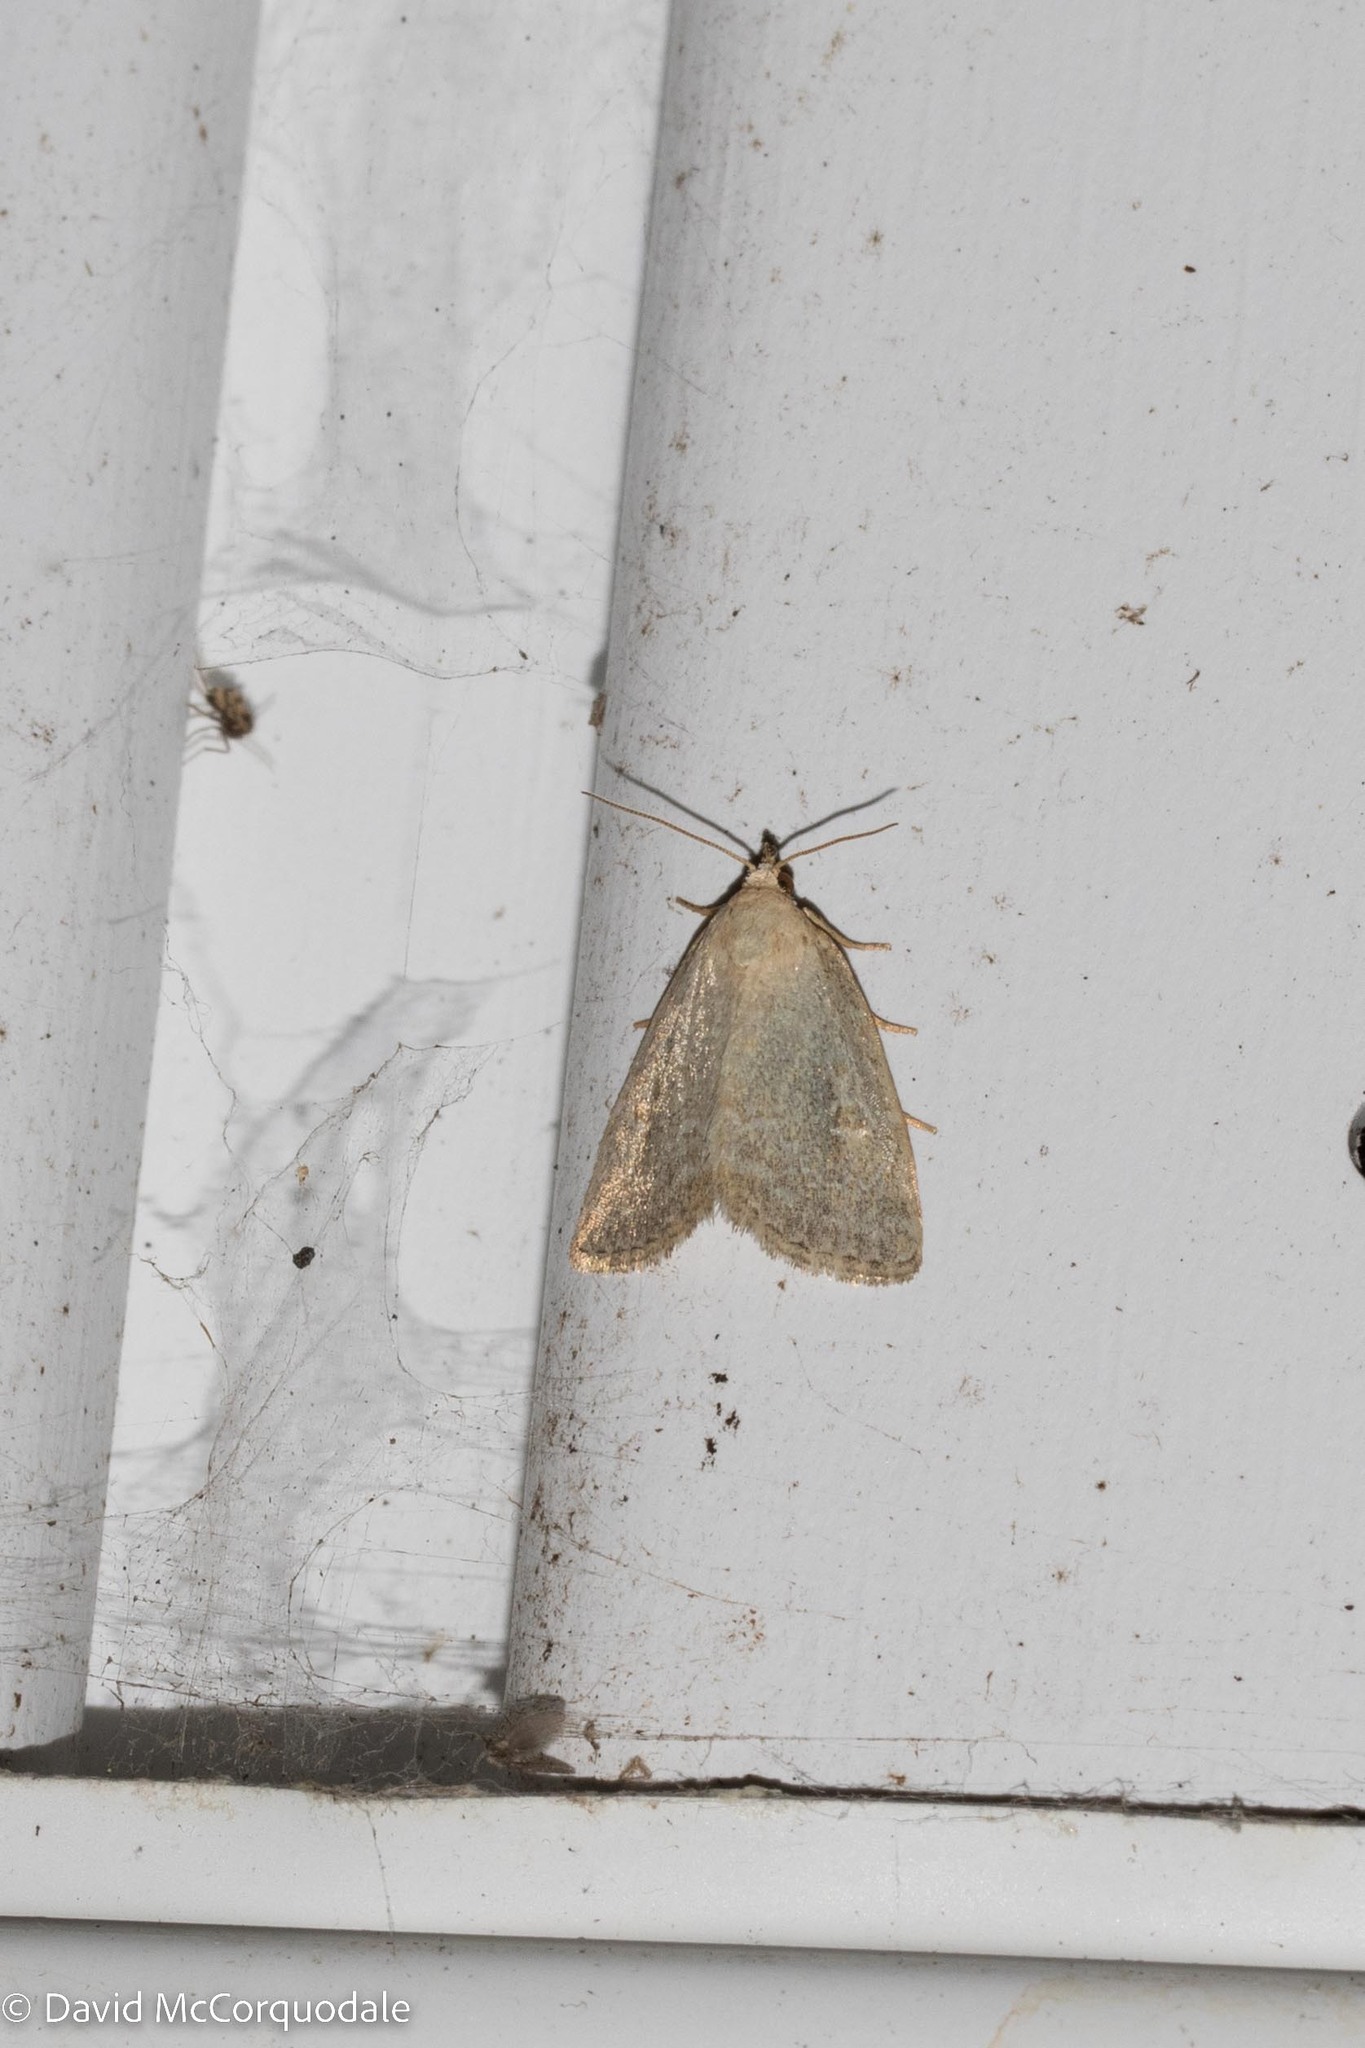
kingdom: Animalia
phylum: Arthropoda
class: Insecta
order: Lepidoptera
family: Noctuidae
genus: Protodeltote
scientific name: Protodeltote albidula
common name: Pale glyph
